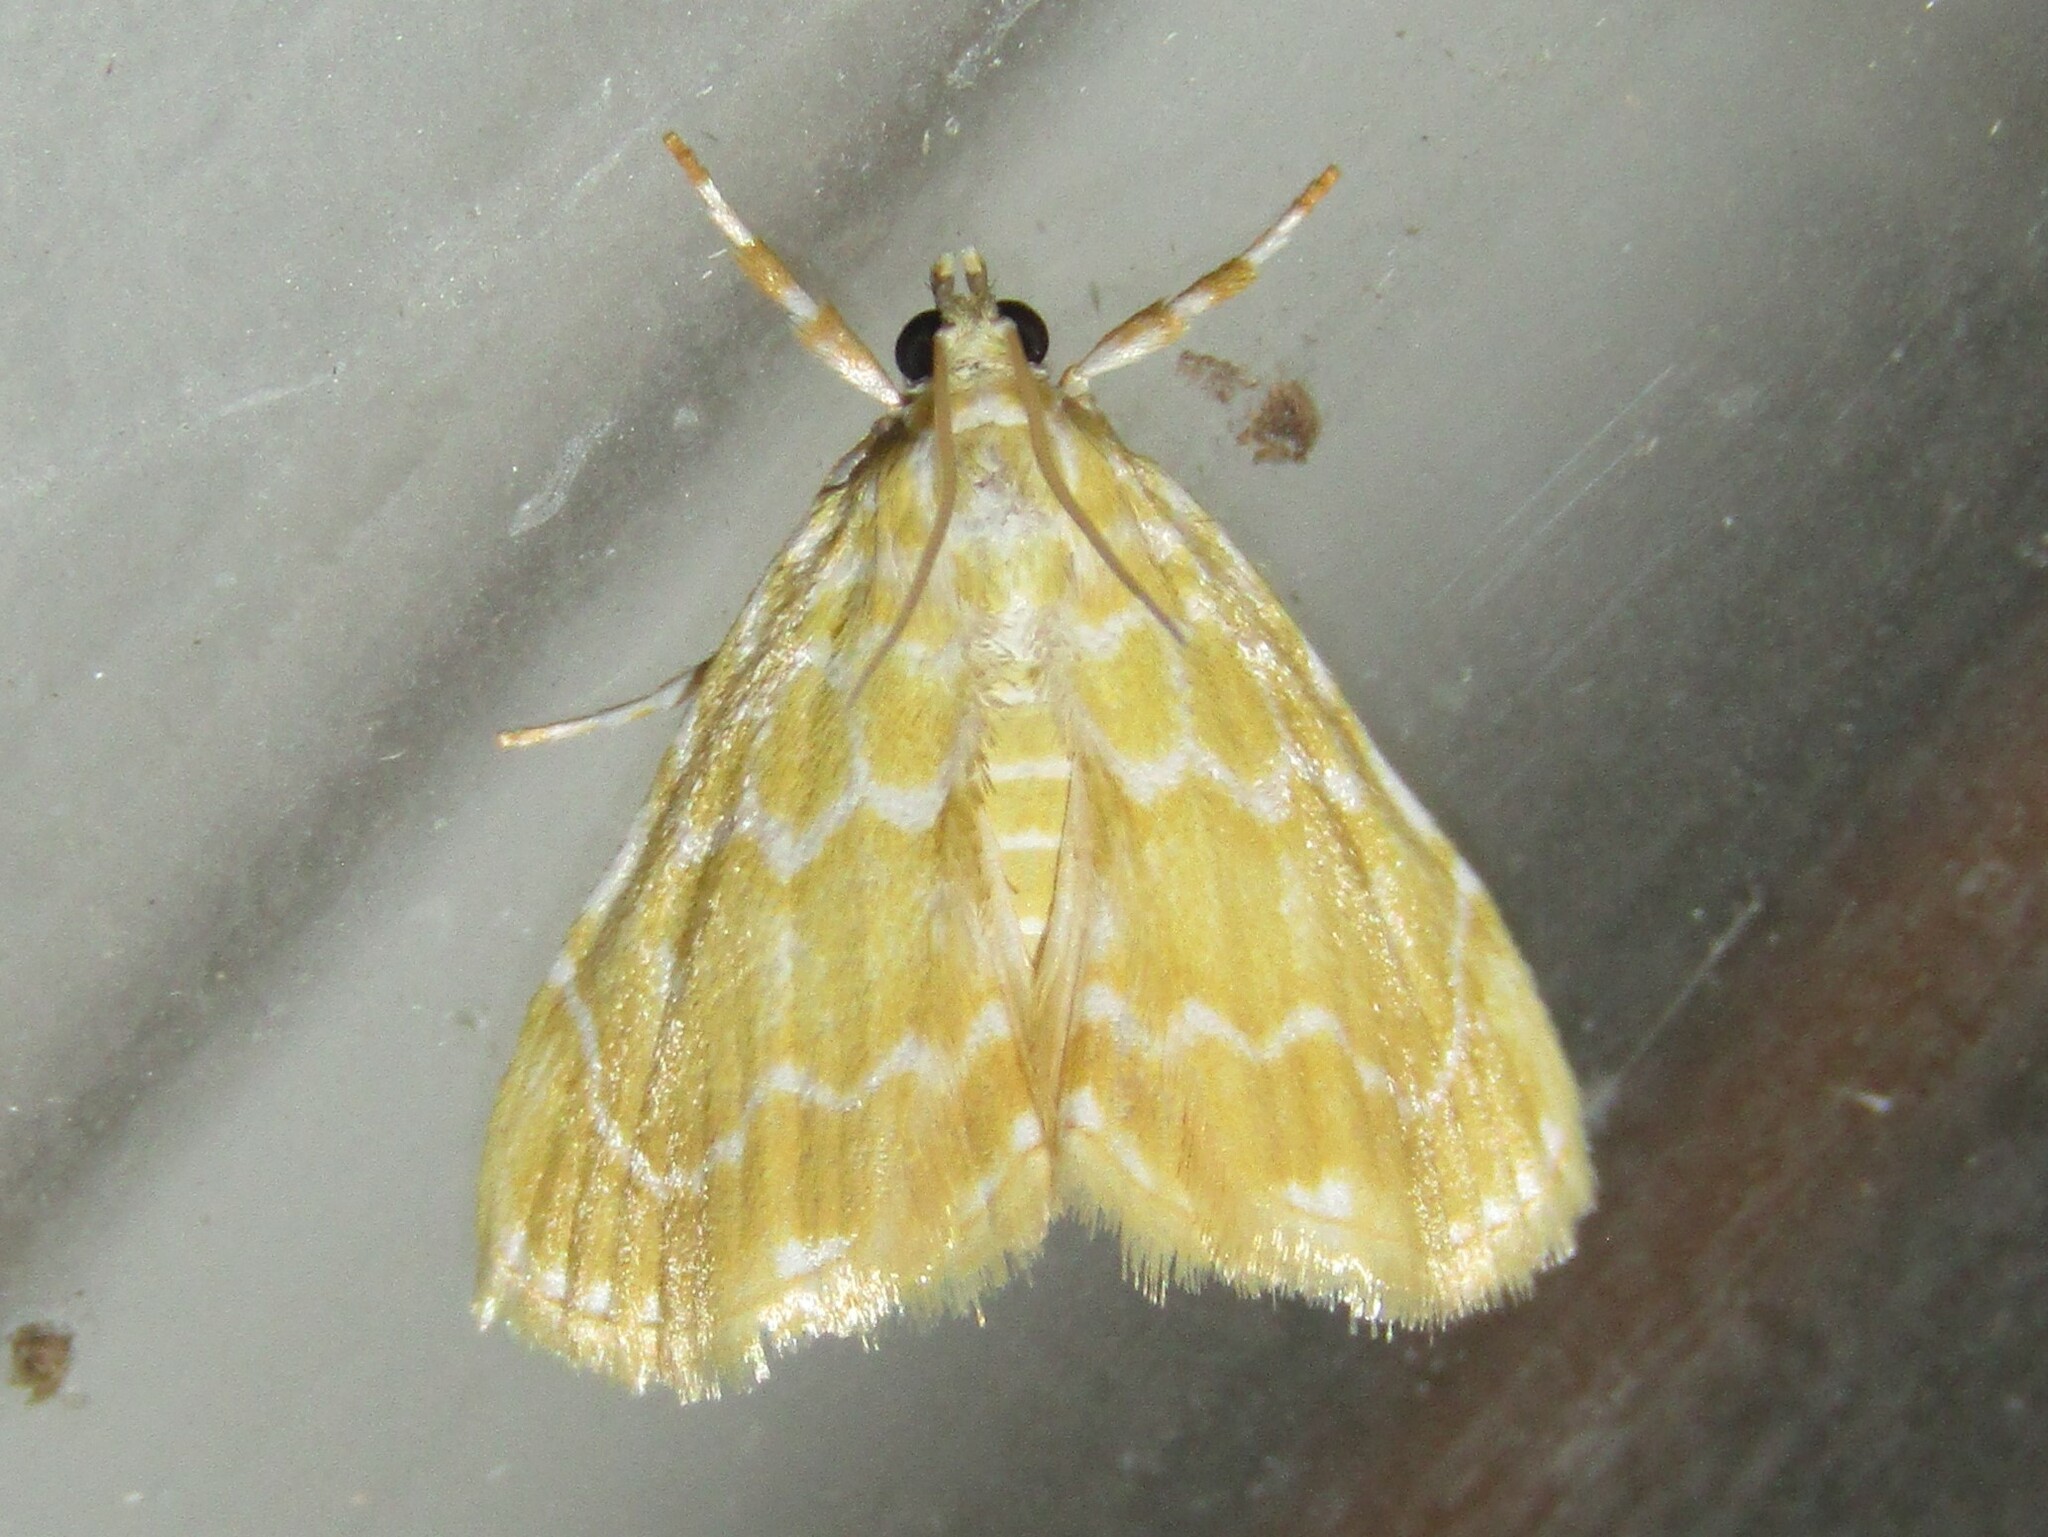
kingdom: Animalia
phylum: Arthropoda
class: Insecta
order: Lepidoptera
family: Crambidae
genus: Glaphyria
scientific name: Glaphyria glaphyralis
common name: Common glaphyria moth
